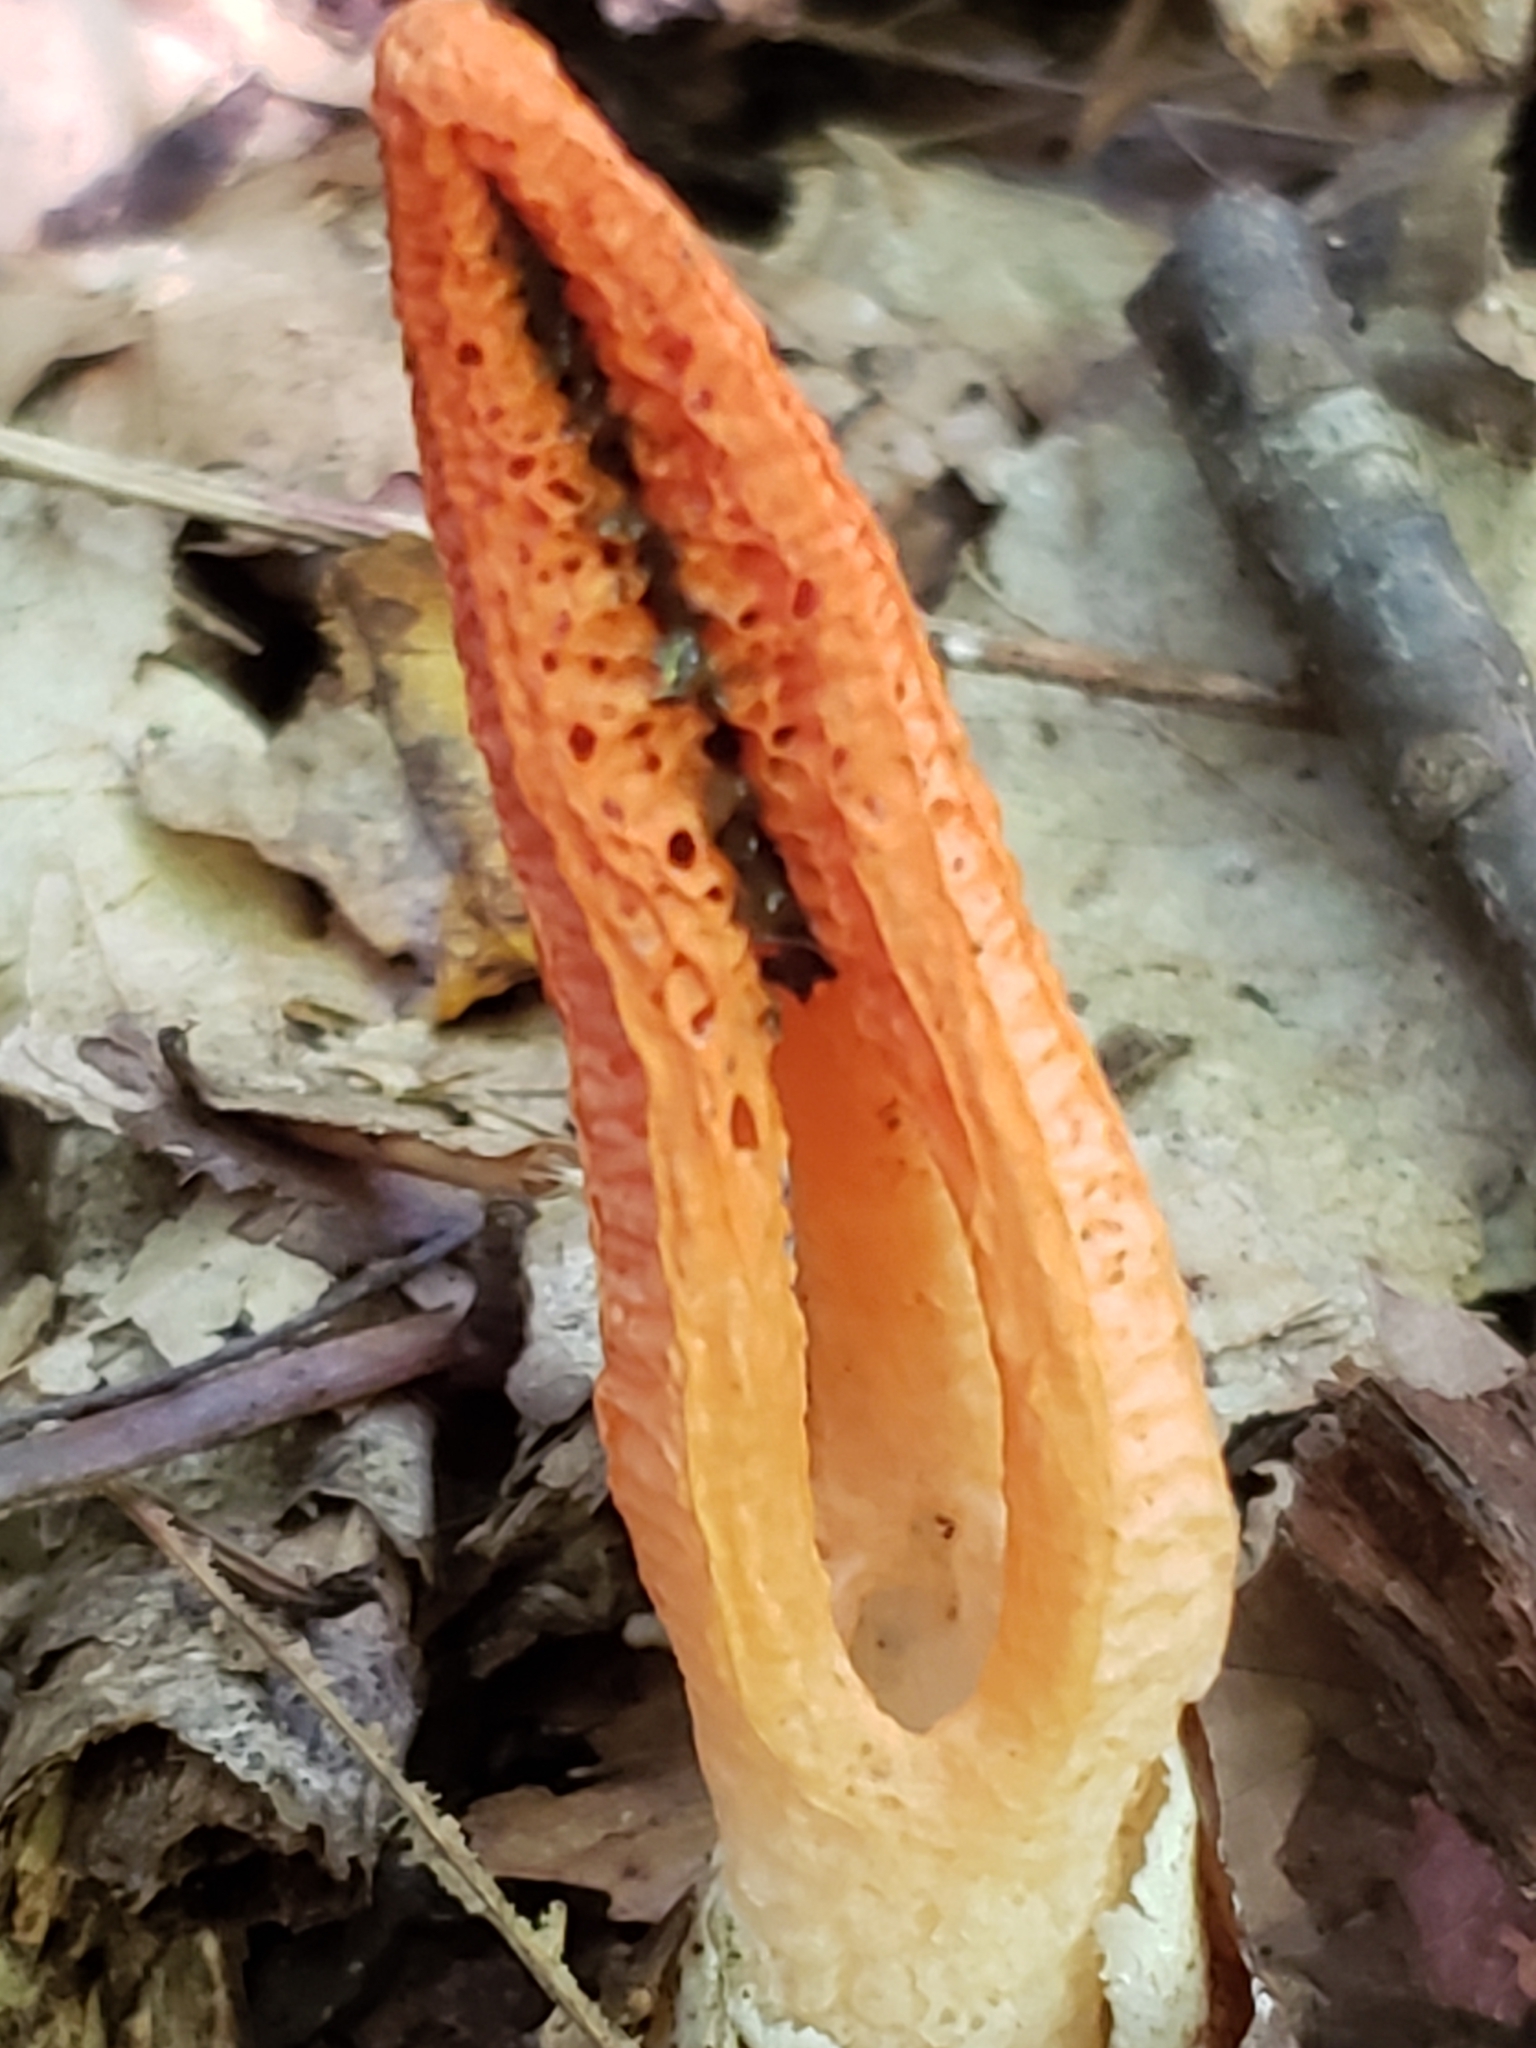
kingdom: Fungi
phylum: Basidiomycota
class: Agaricomycetes
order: Phallales
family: Phallaceae
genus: Pseudocolus
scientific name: Pseudocolus fusiformis
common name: Stinky squid
